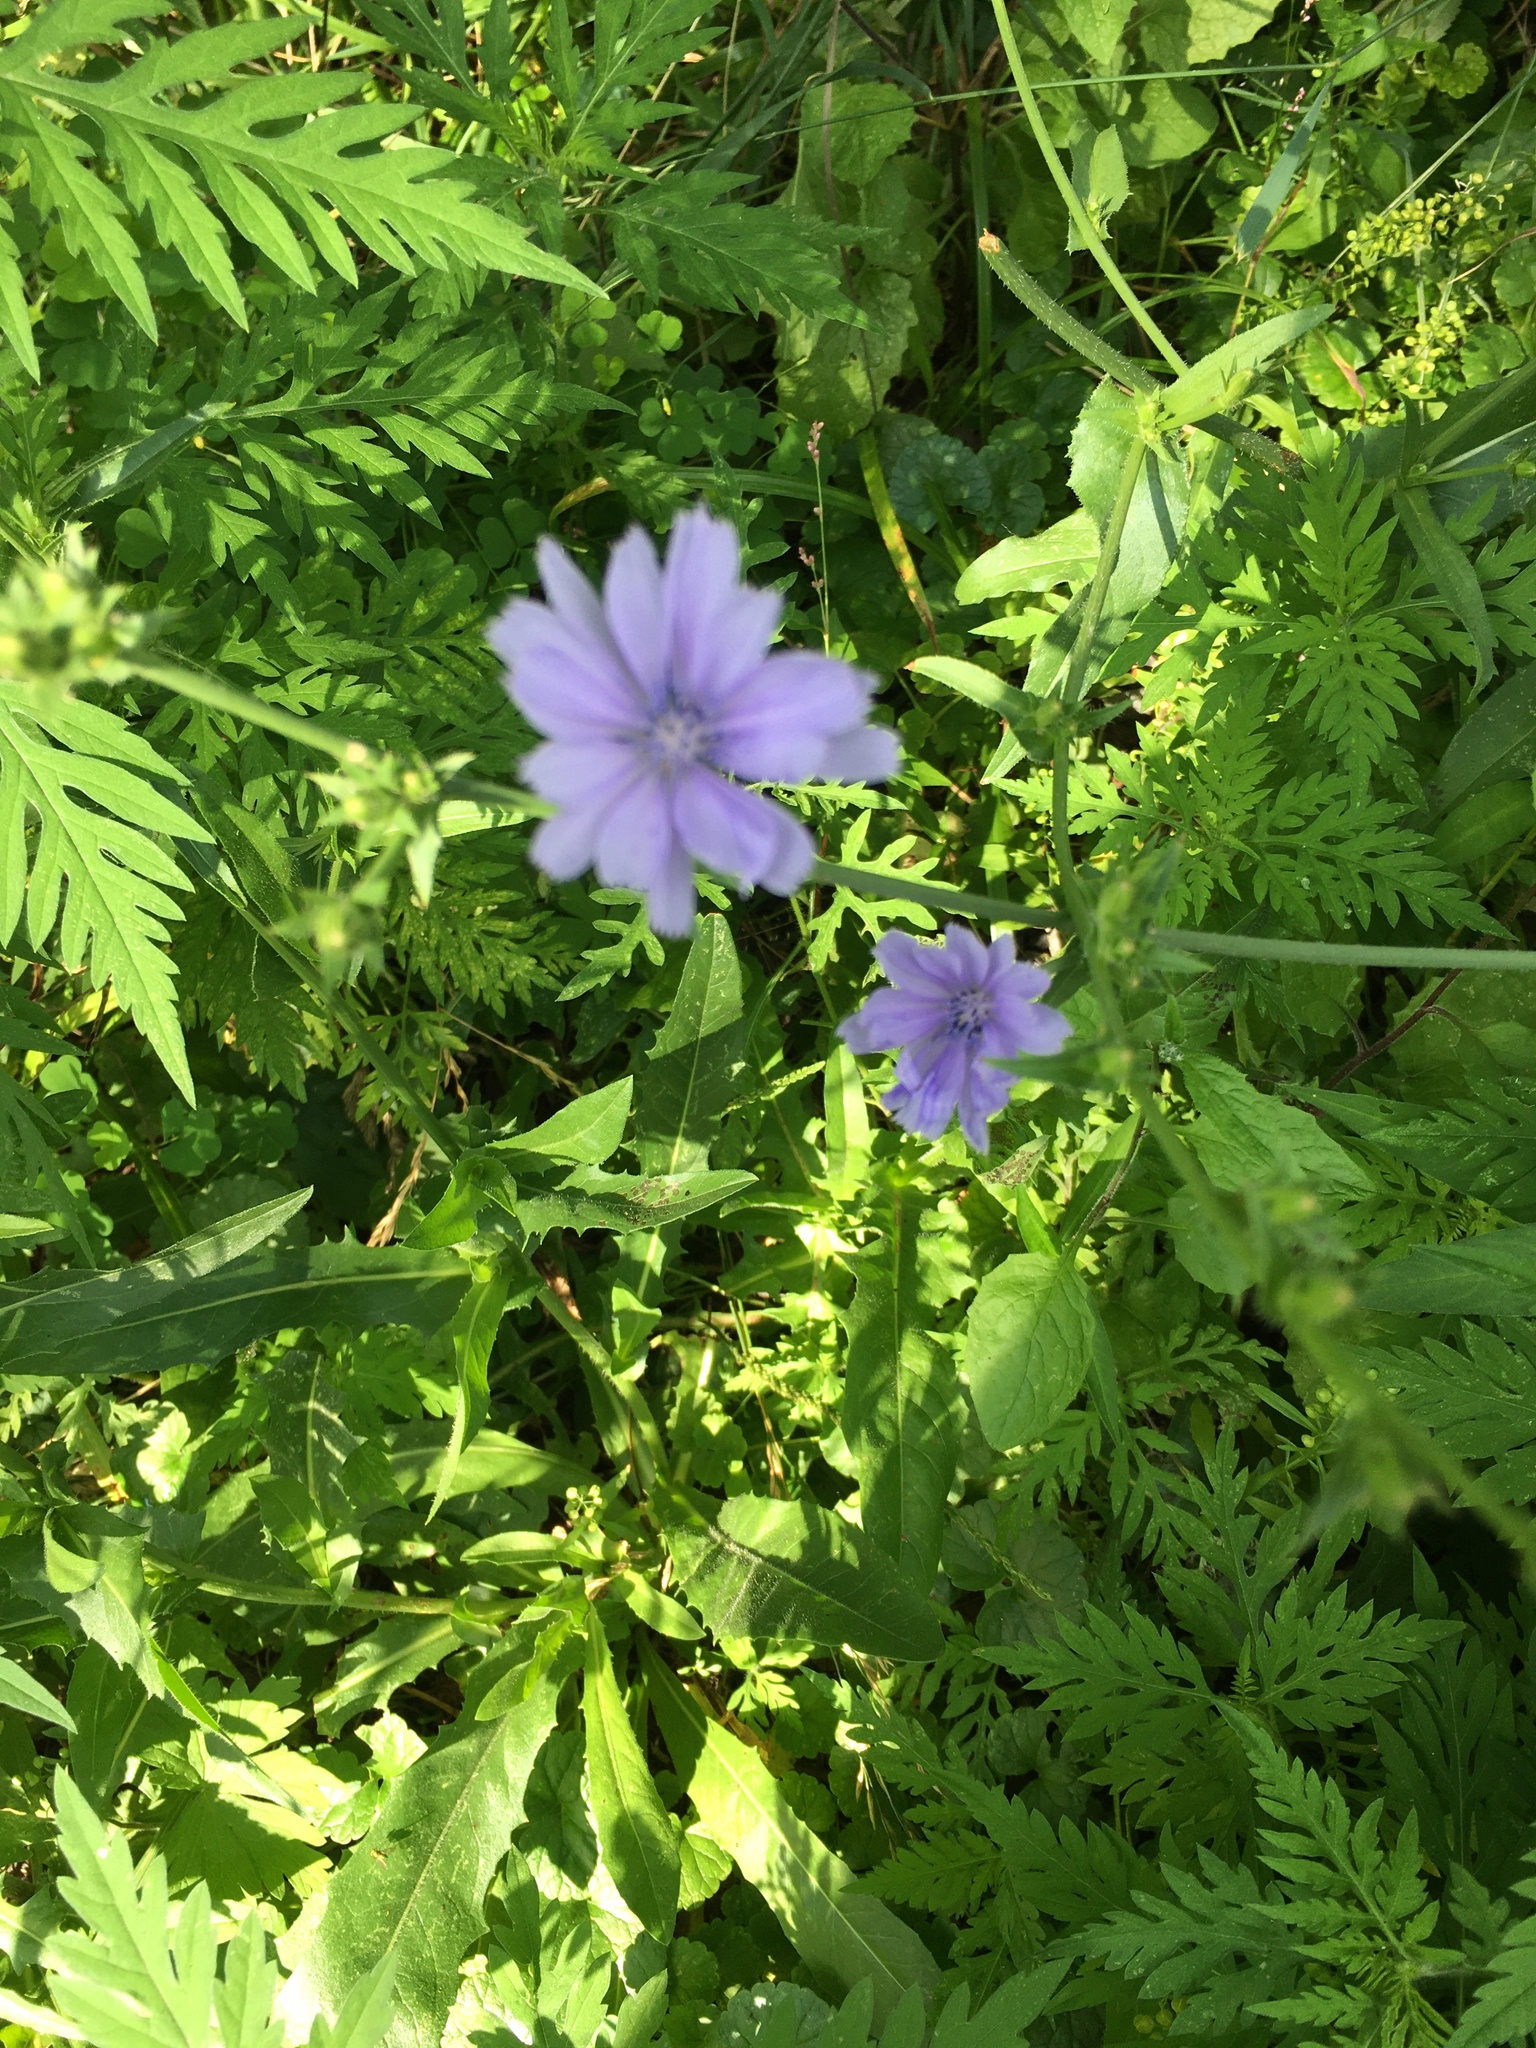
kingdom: Plantae
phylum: Tracheophyta
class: Magnoliopsida
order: Asterales
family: Asteraceae
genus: Cichorium
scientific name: Cichorium intybus
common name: Chicory
